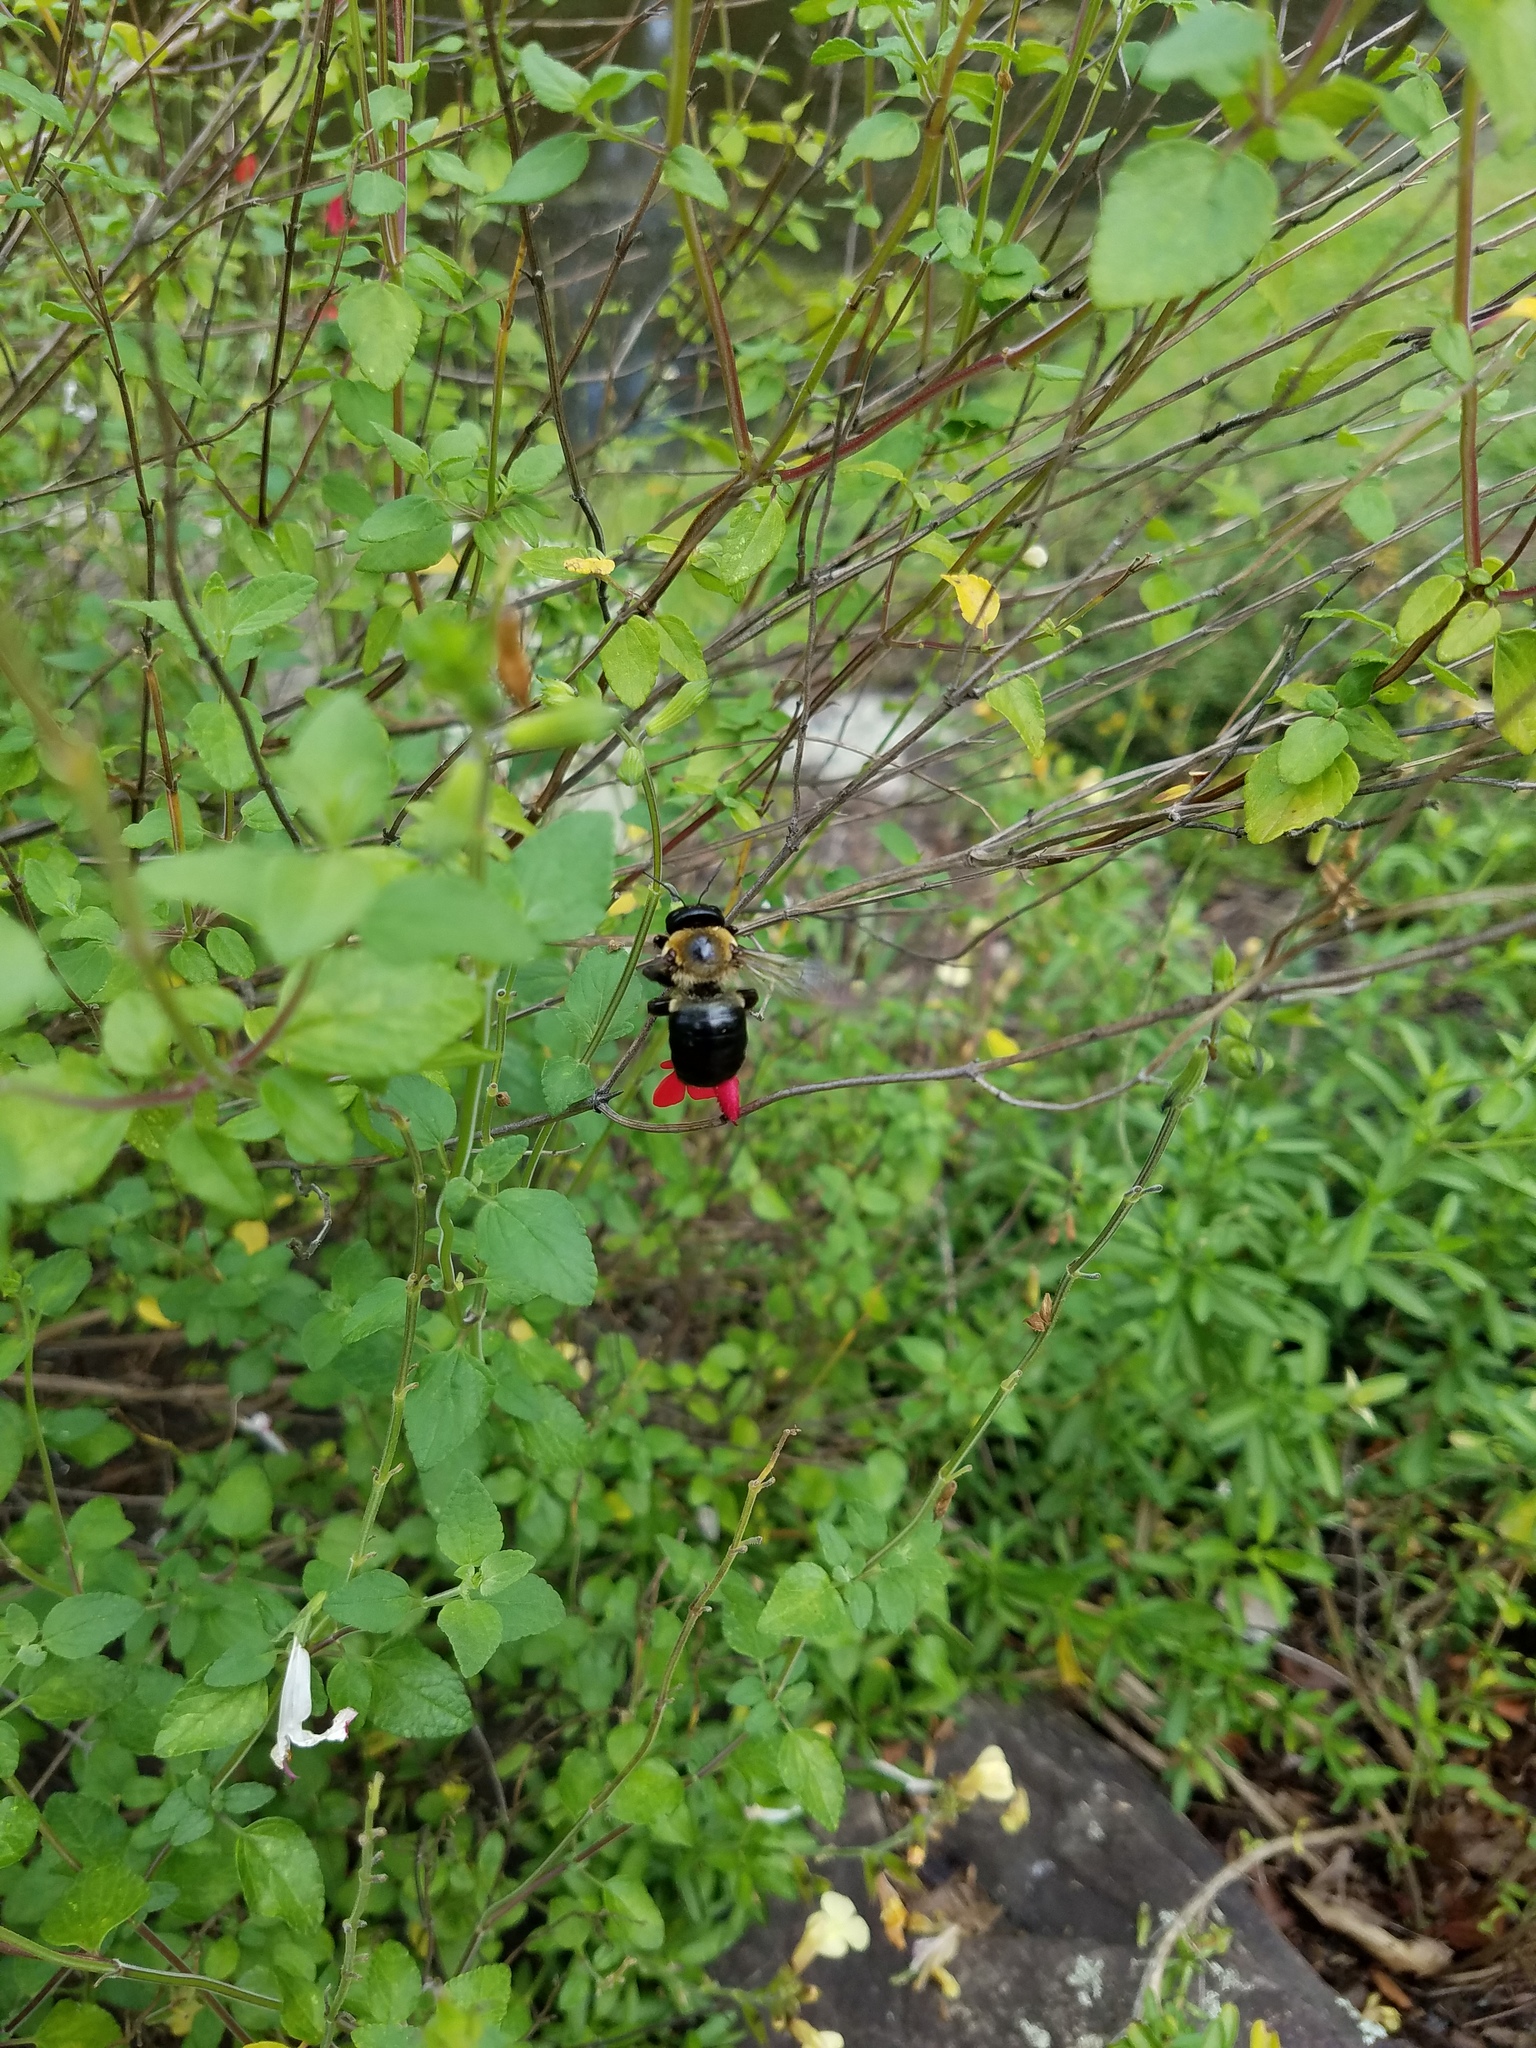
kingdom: Animalia
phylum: Arthropoda
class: Insecta
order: Hymenoptera
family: Apidae
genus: Xylocopa
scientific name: Xylocopa virginica
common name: Carpenter bee
